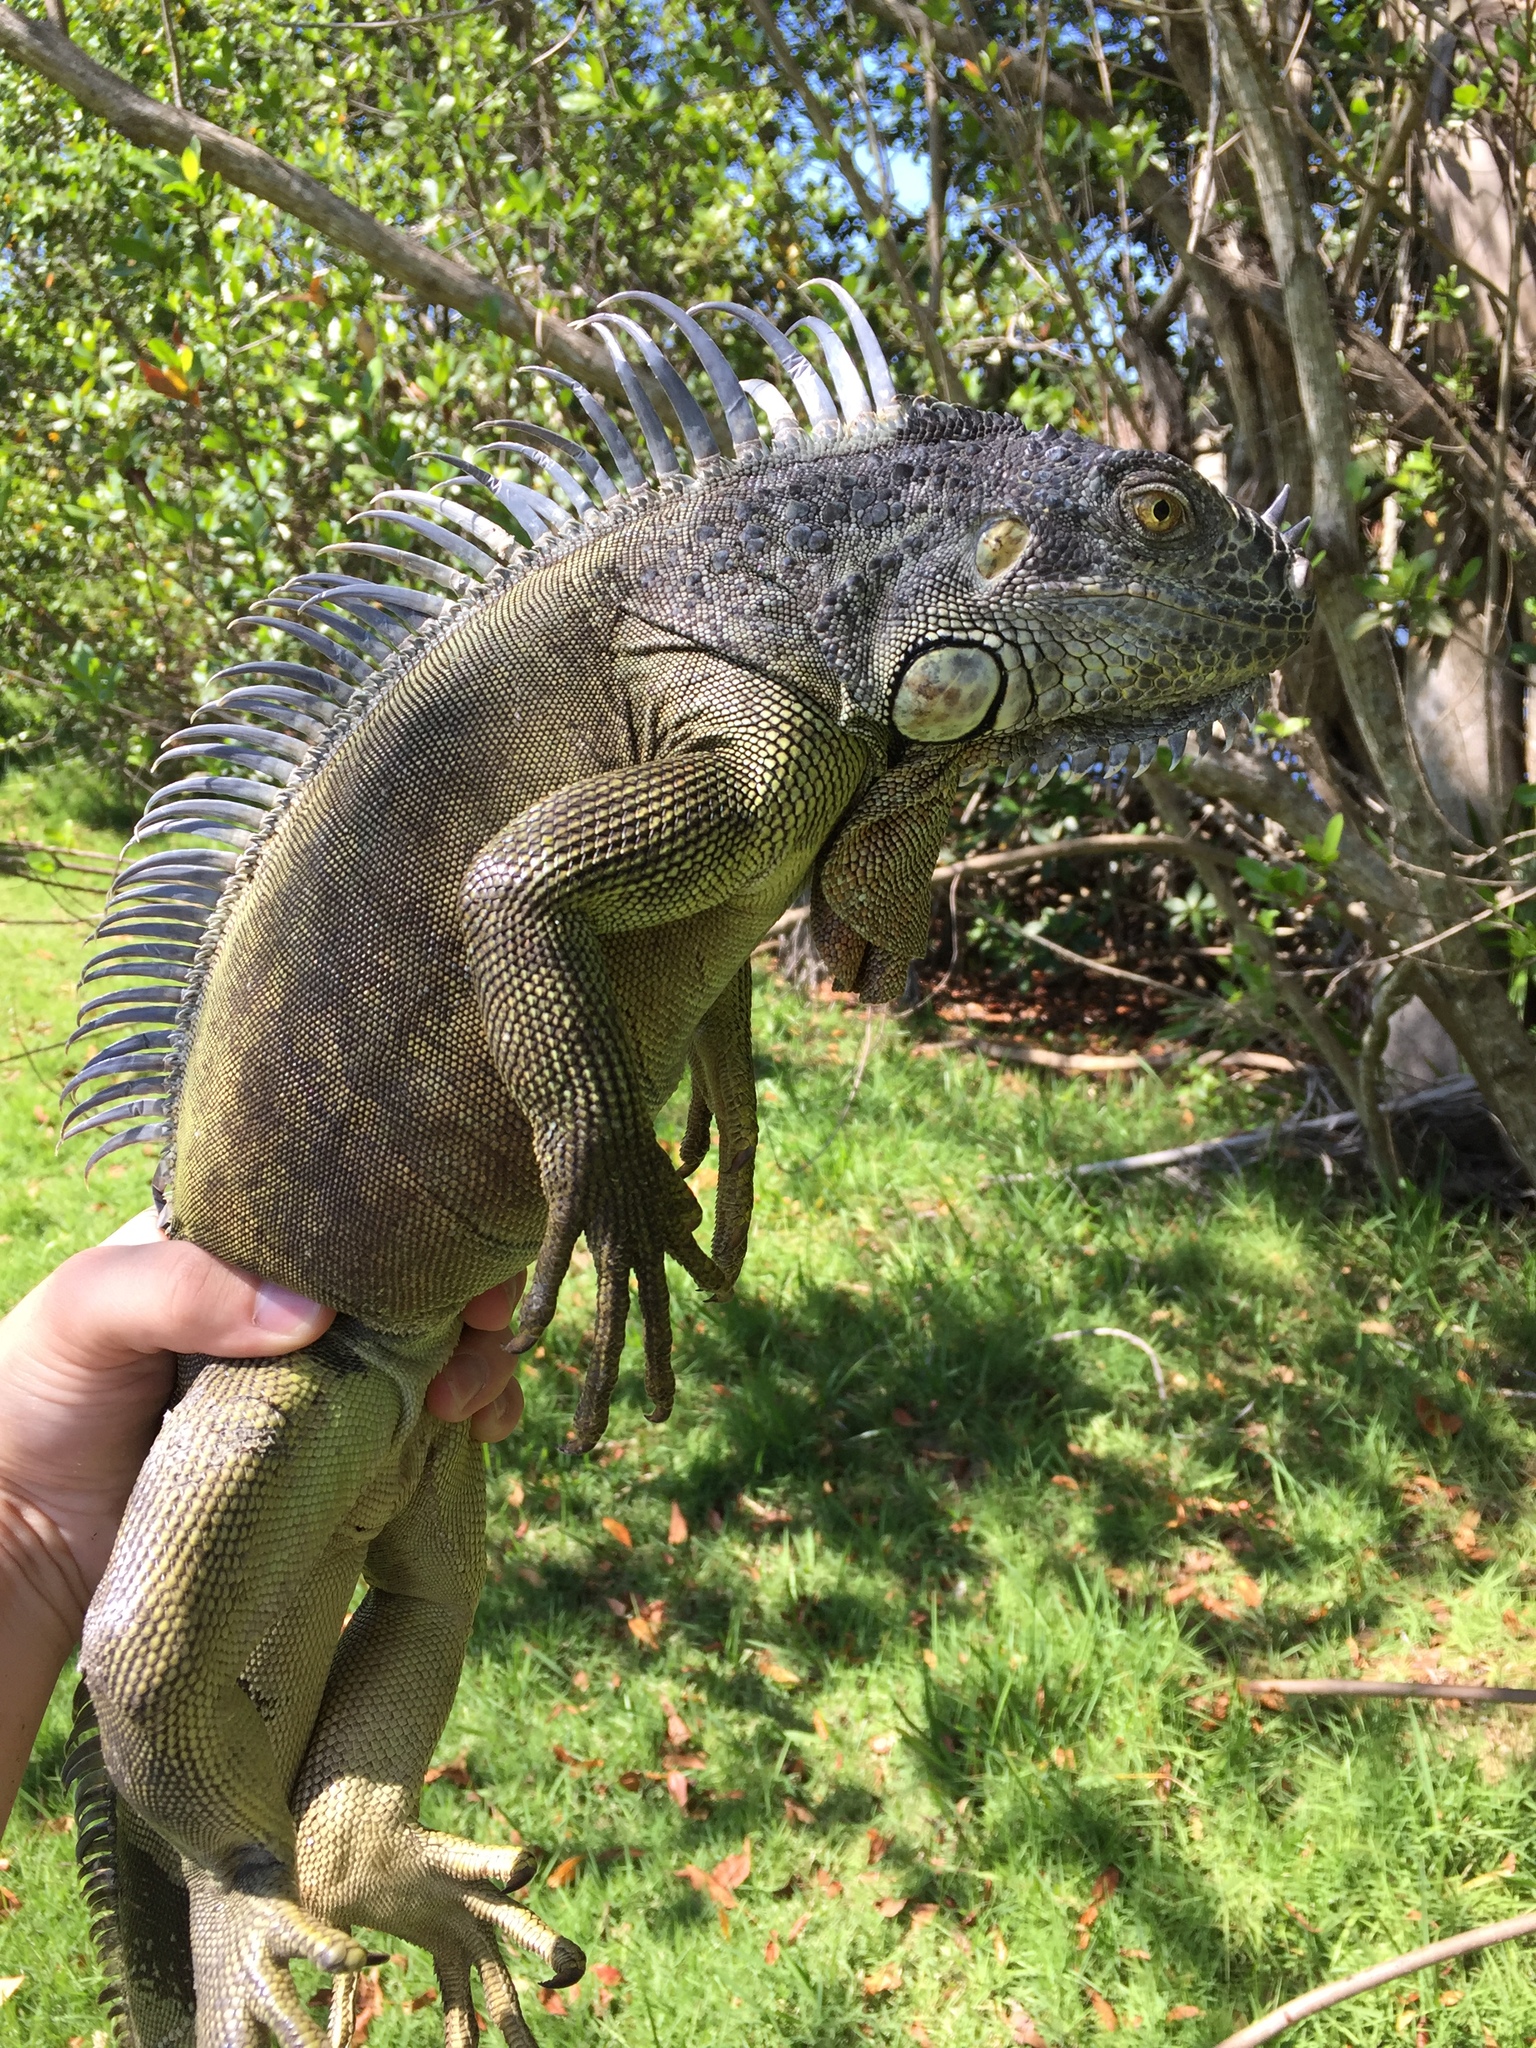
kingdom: Animalia
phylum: Chordata
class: Squamata
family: Iguanidae
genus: Iguana
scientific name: Iguana iguana
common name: Green iguana
